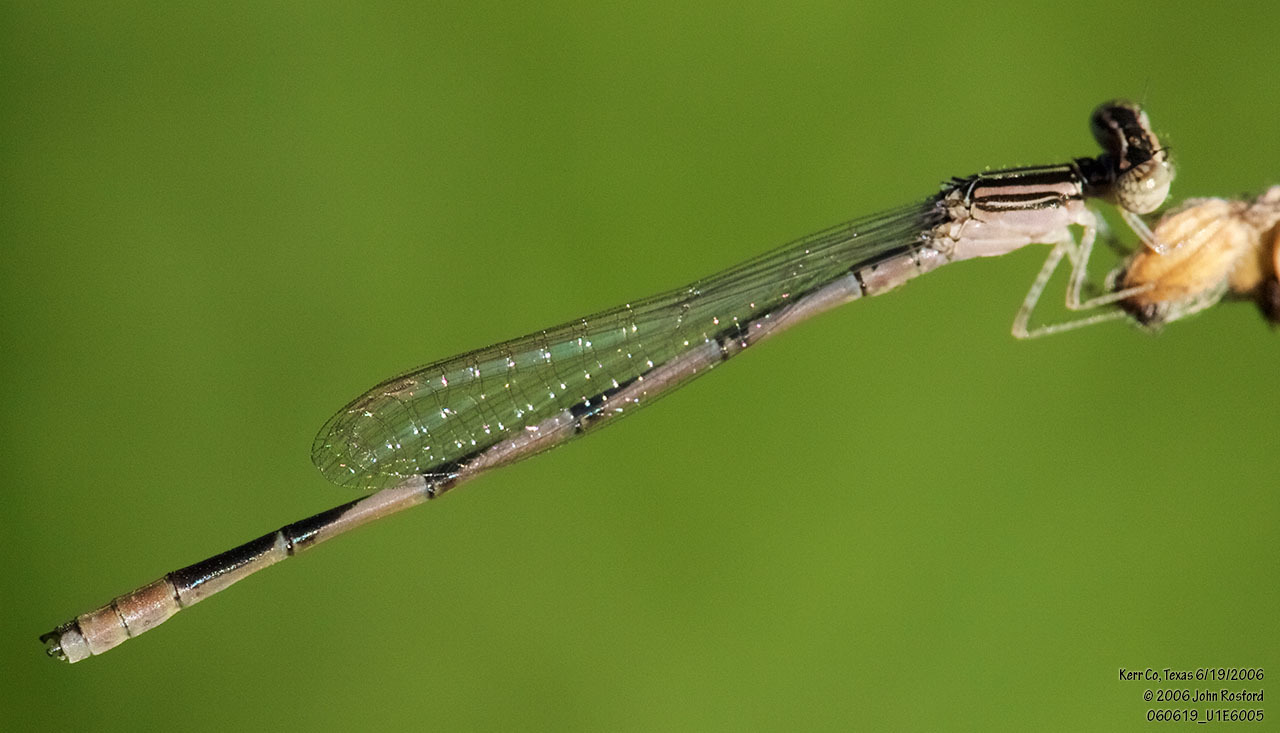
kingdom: Animalia
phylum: Arthropoda
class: Insecta
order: Odonata
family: Coenagrionidae
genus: Enallagma
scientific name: Enallagma basidens
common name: Double-striped bluet
